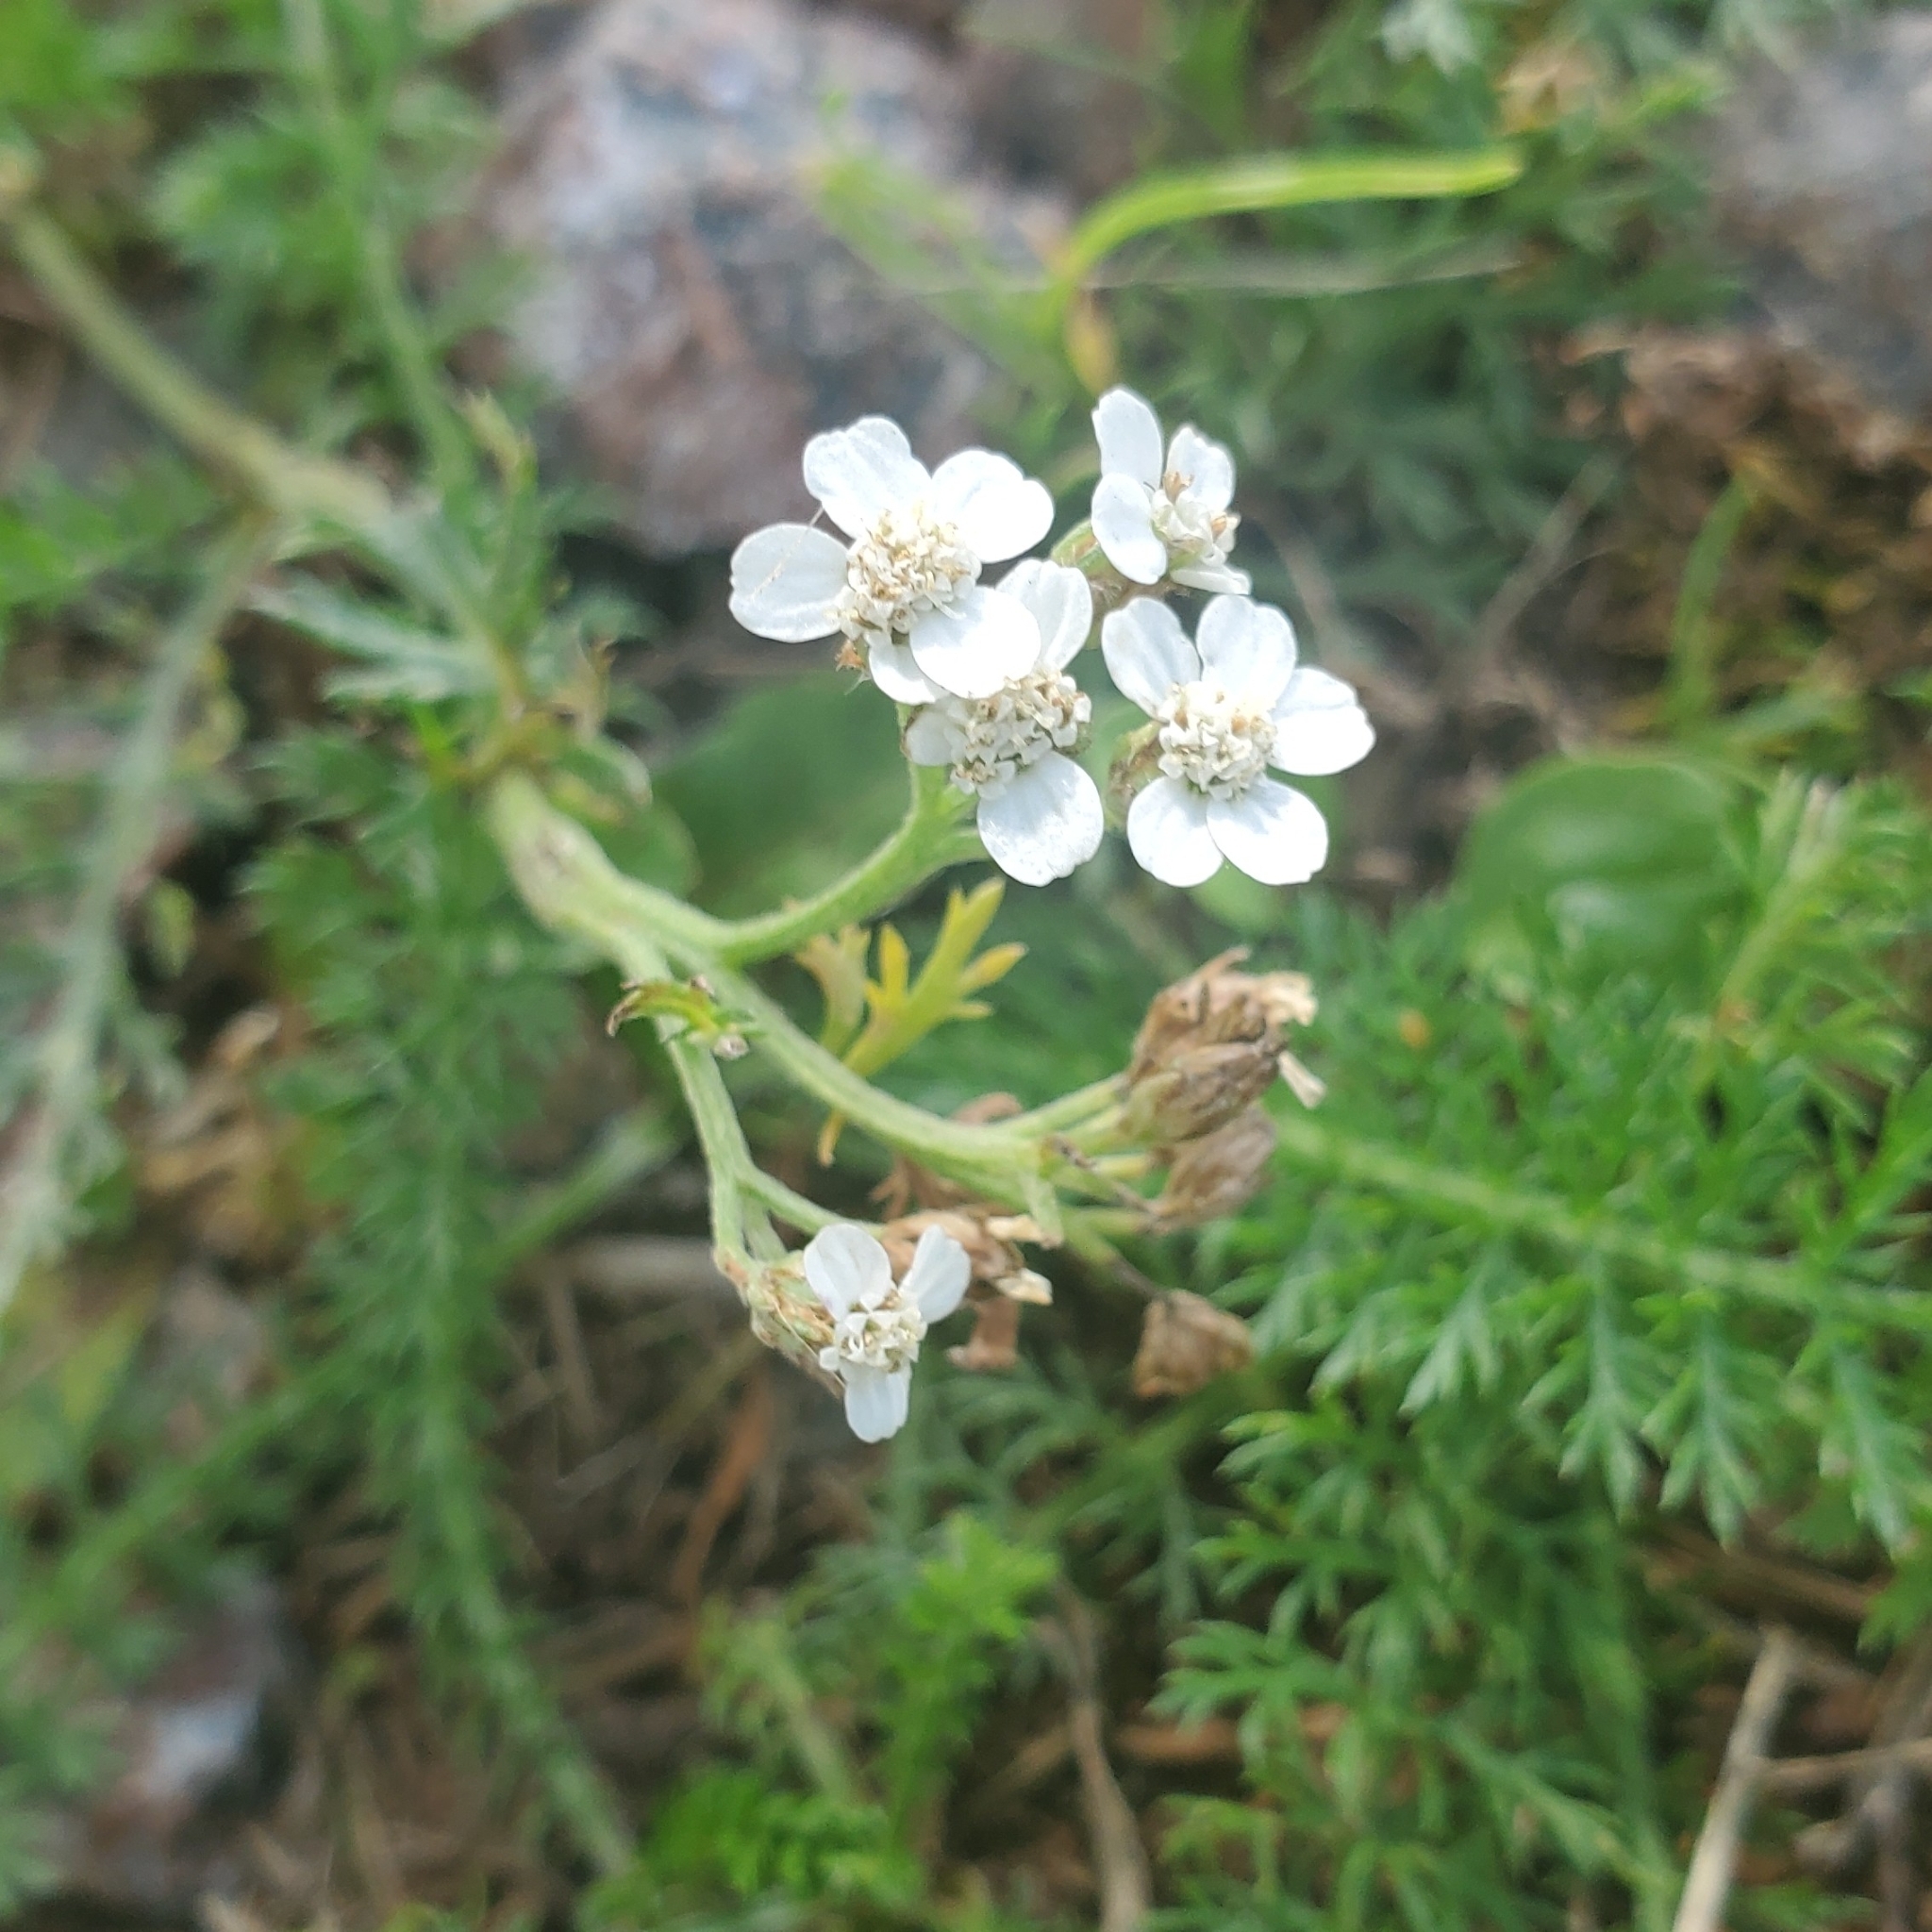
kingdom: Plantae
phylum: Tracheophyta
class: Magnoliopsida
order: Asterales
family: Asteraceae
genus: Achillea
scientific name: Achillea millefolium
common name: Yarrow
